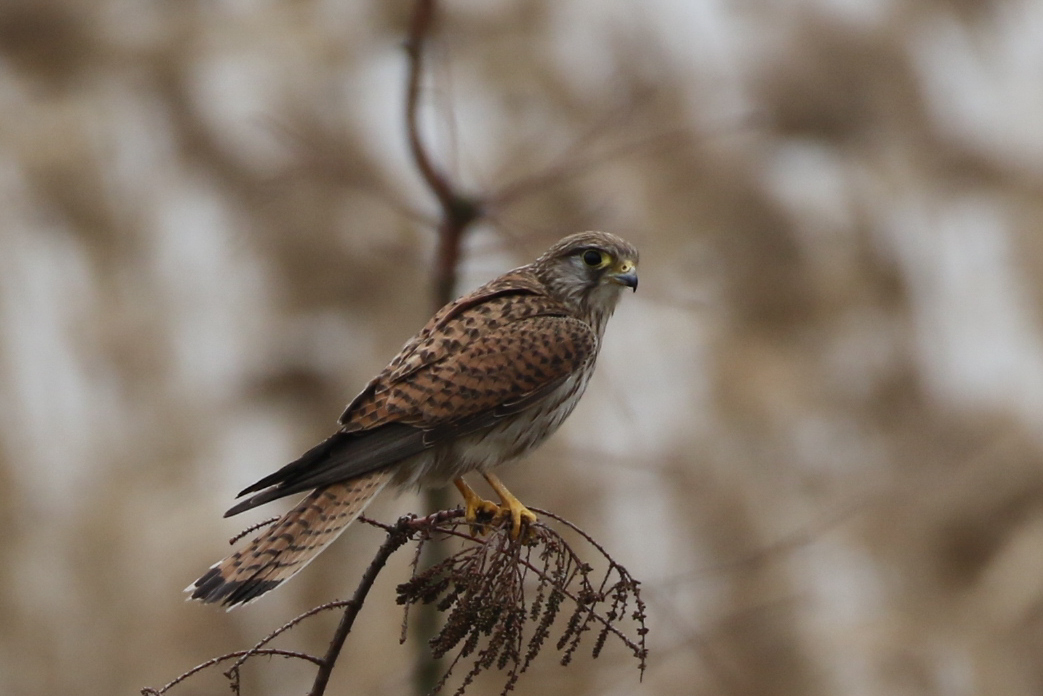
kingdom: Animalia
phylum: Chordata
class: Aves
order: Falconiformes
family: Falconidae
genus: Falco
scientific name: Falco tinnunculus
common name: Common kestrel
